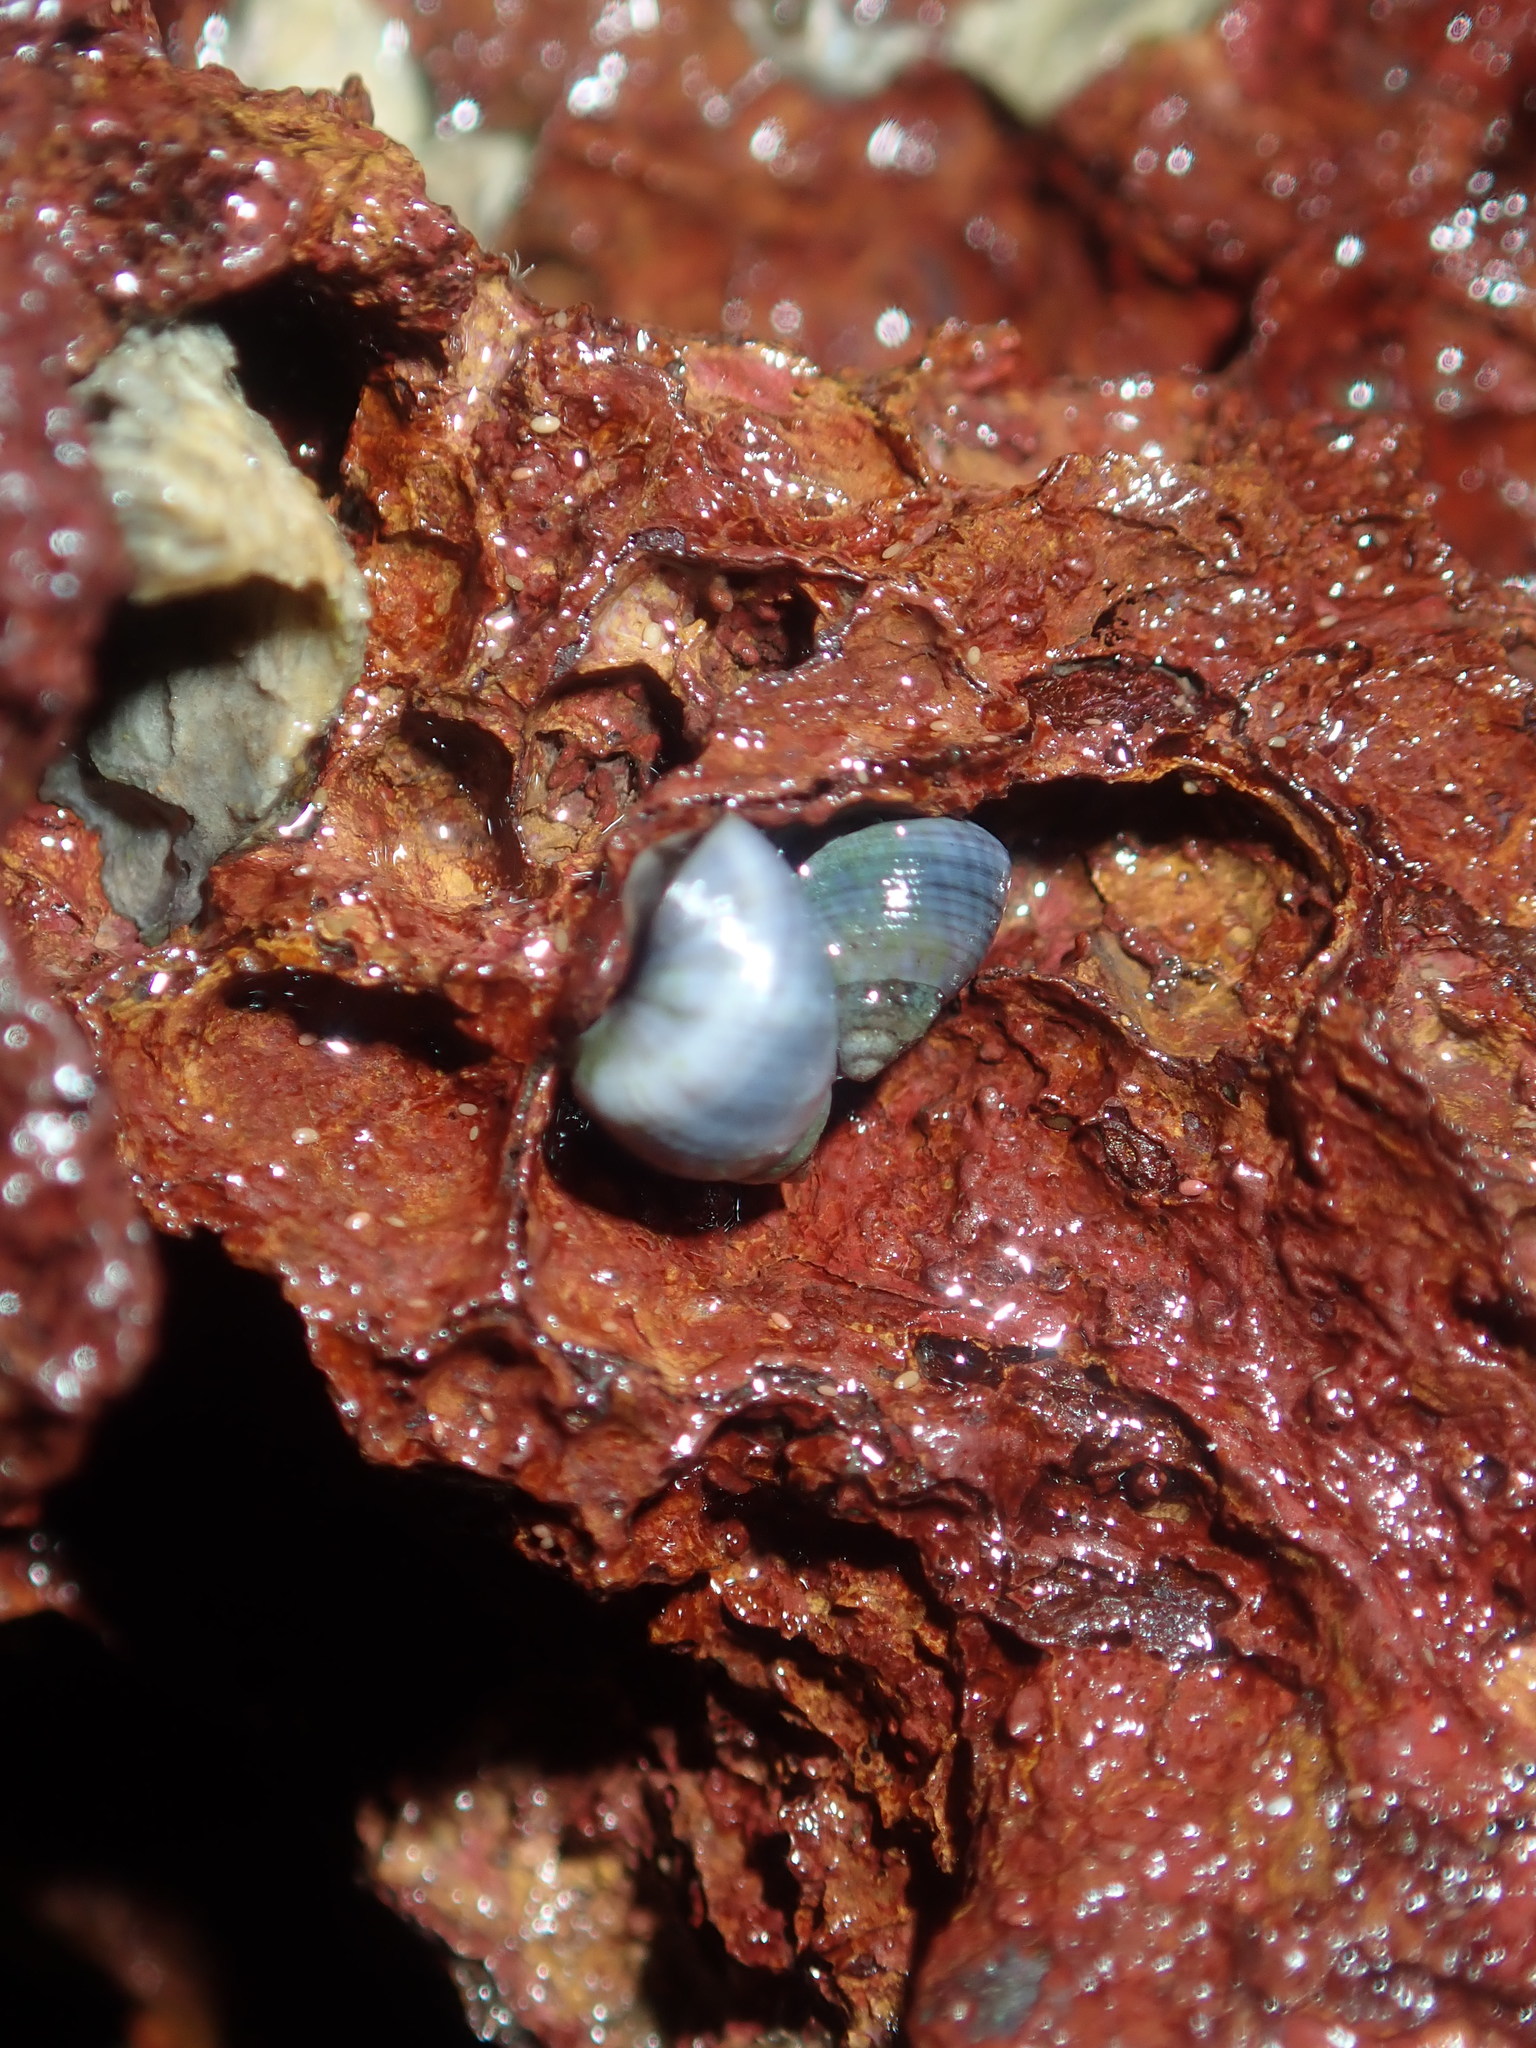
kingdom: Animalia
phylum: Mollusca
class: Gastropoda
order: Littorinimorpha
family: Littorinidae
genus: Austrolittorina
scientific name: Austrolittorina unifasciata
